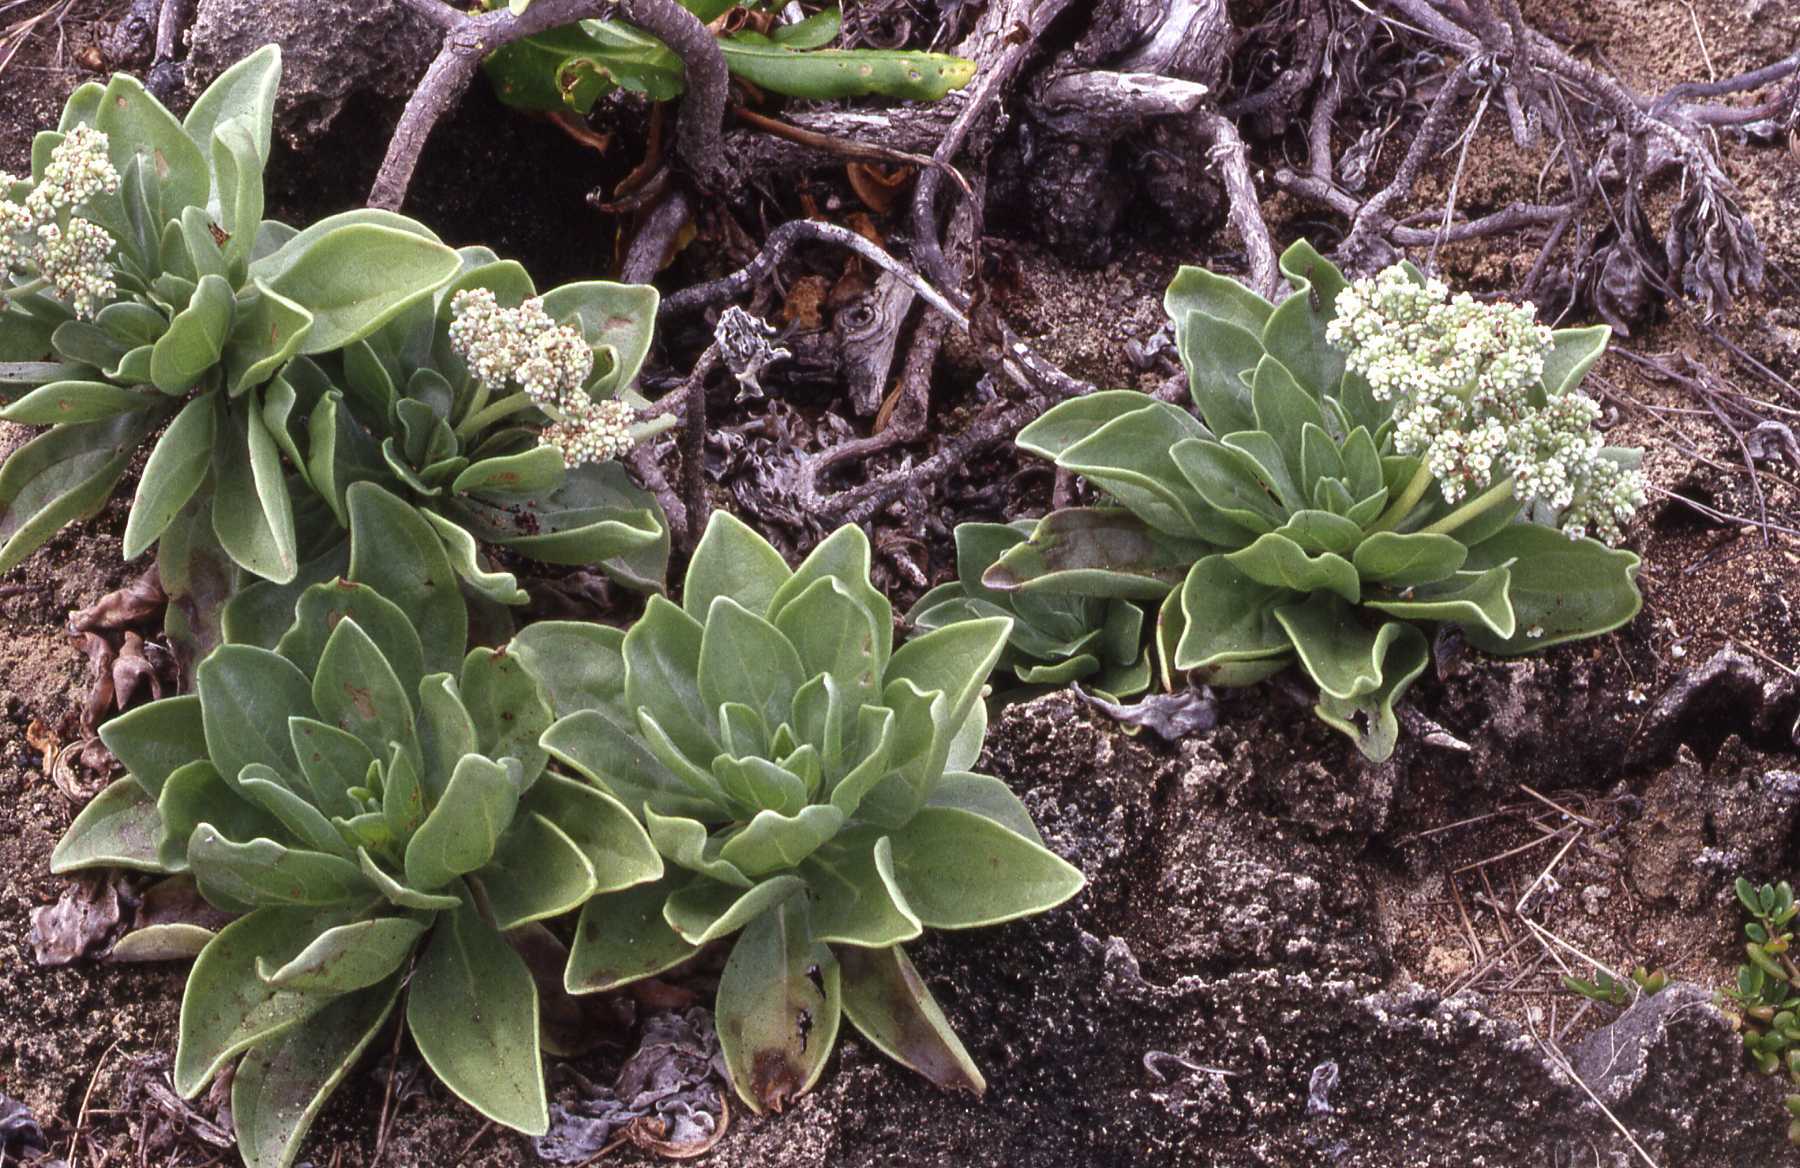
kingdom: Plantae
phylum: Tracheophyta
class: Magnoliopsida
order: Boraginales
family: Heliotropiaceae
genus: Heliotropium
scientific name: Heliotropium velutinum
